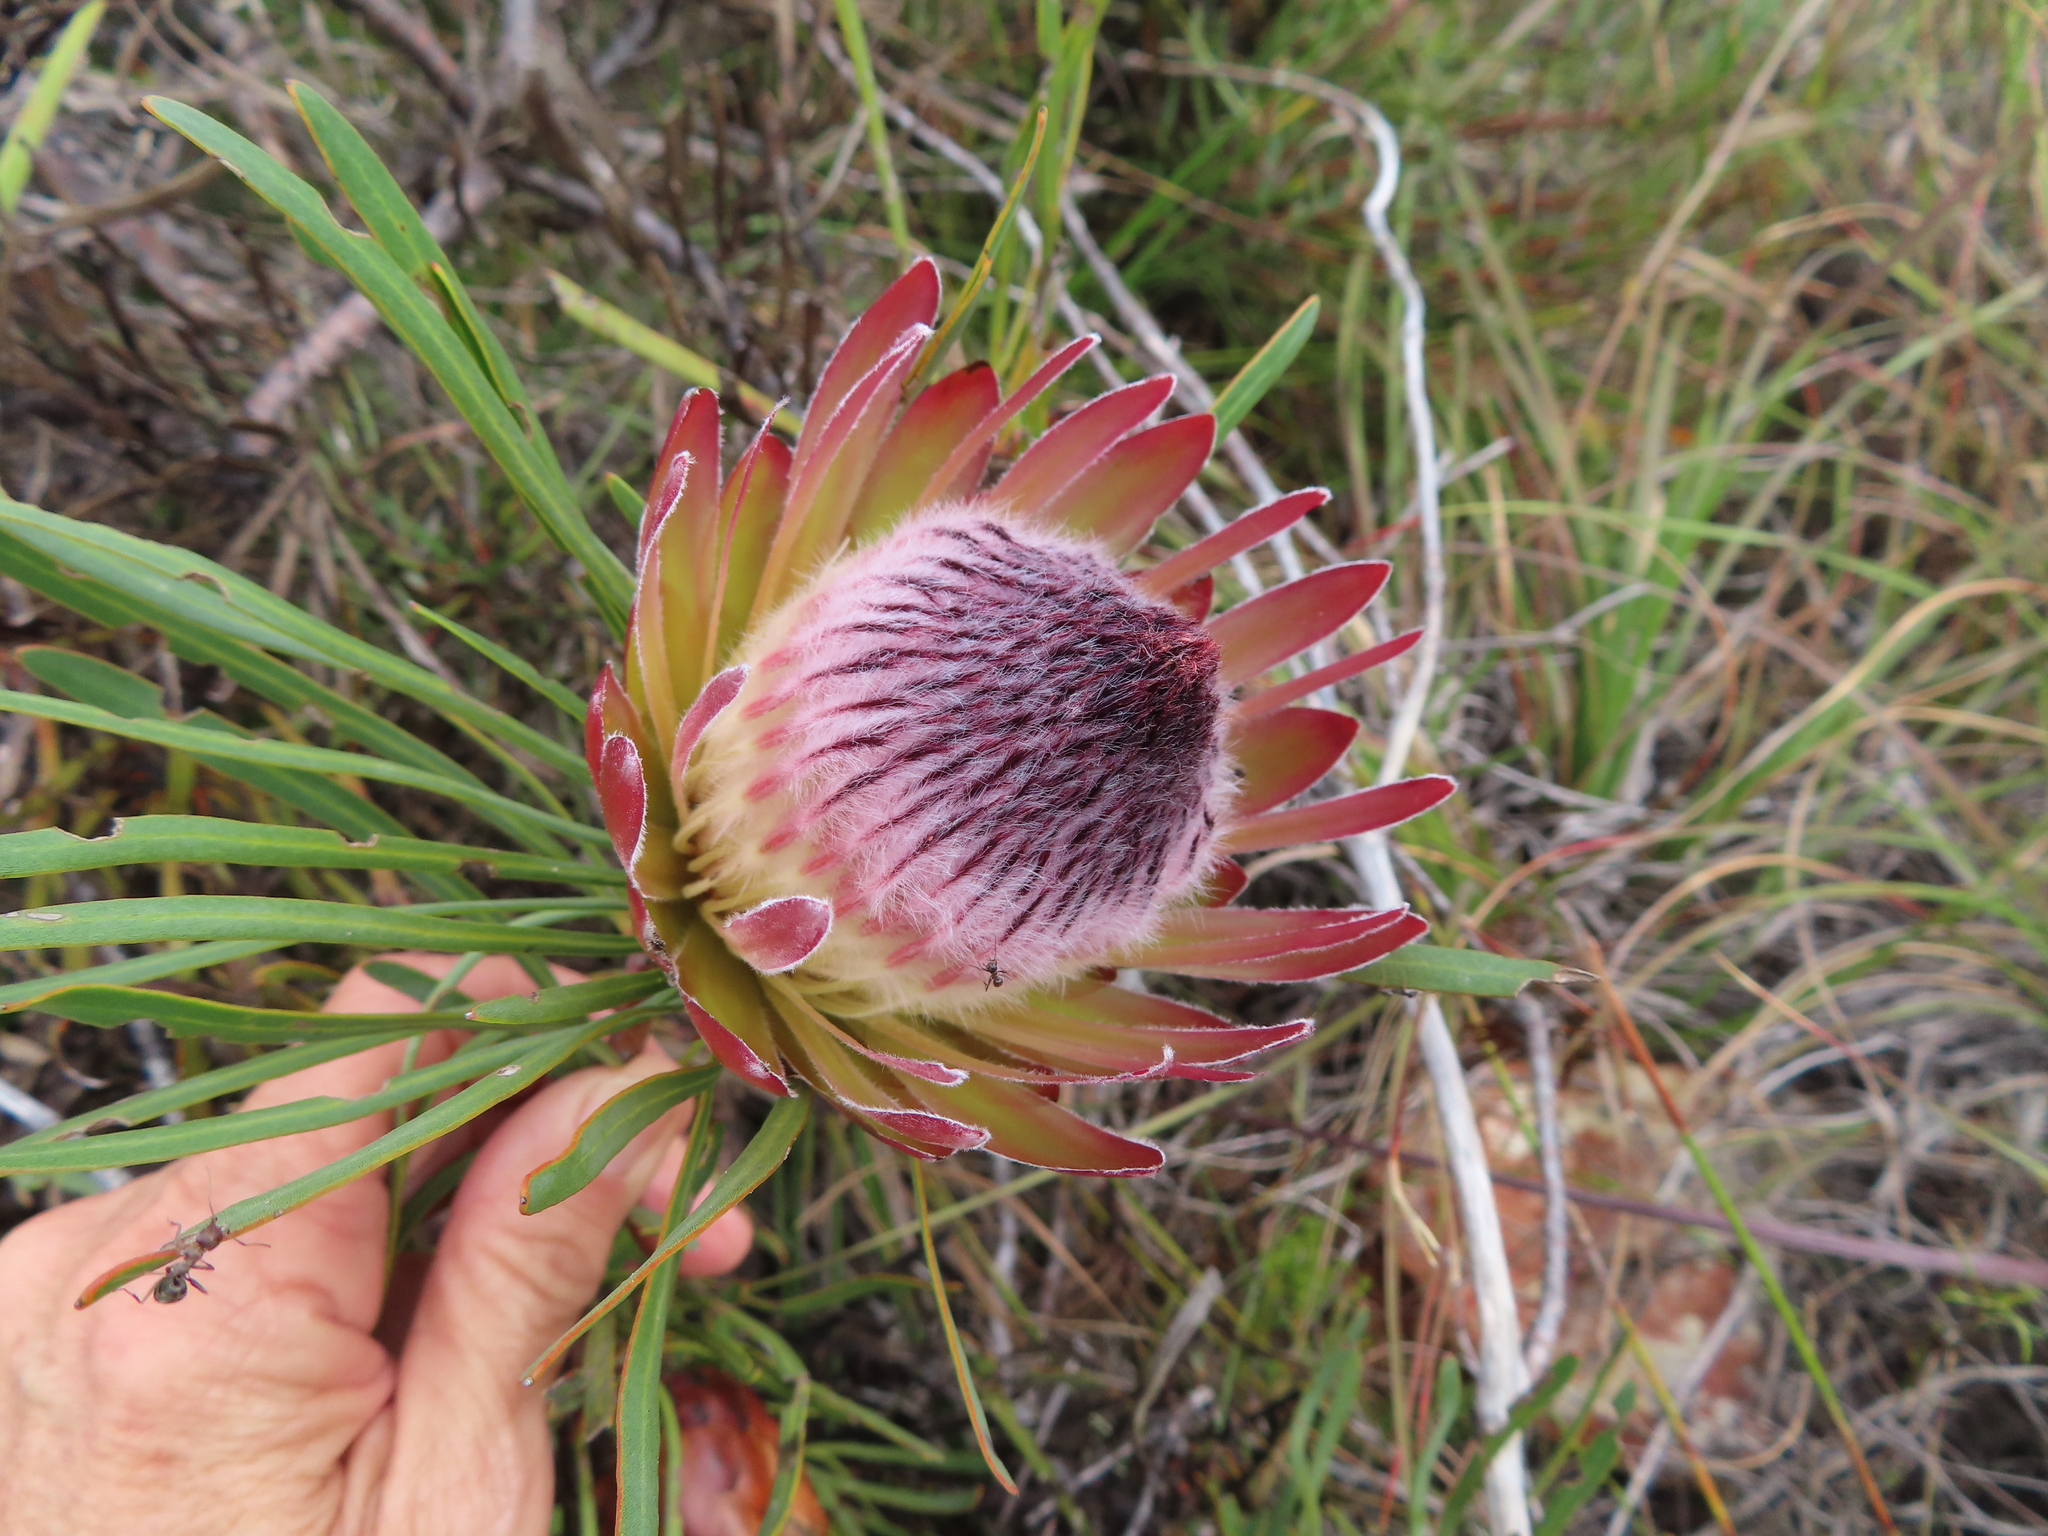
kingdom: Plantae
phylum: Tracheophyta
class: Magnoliopsida
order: Proteales
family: Proteaceae
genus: Protea
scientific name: Protea pudens
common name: Bashful sugarbush
